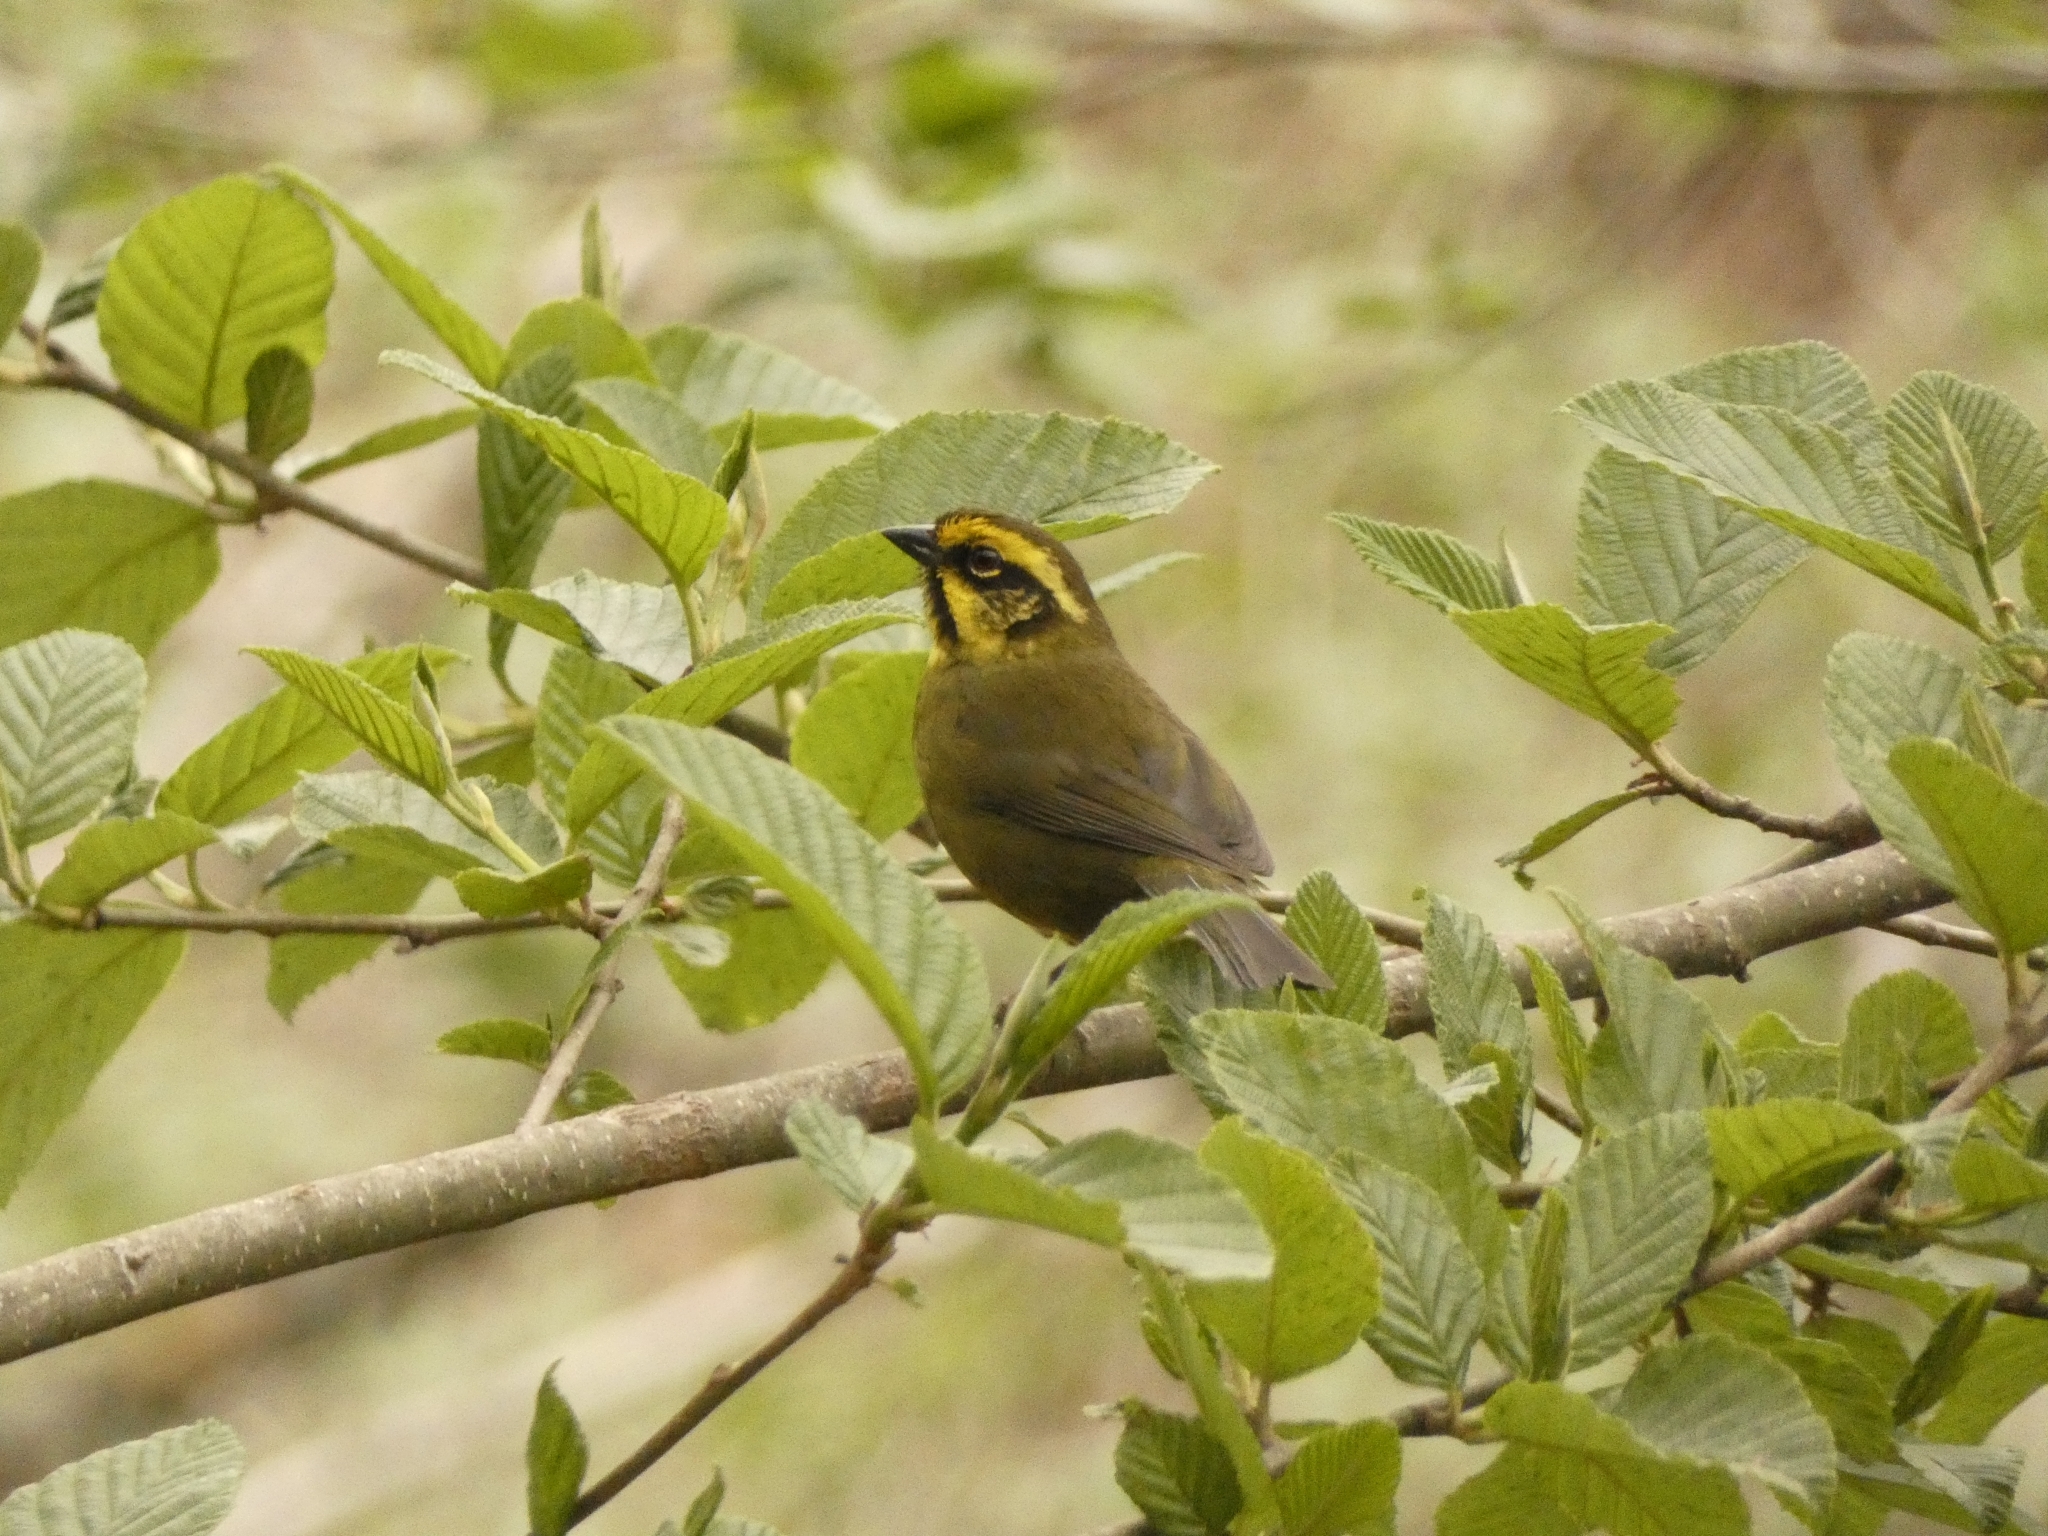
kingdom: Animalia
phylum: Chordata
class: Aves
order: Passeriformes
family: Passerellidae
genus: Atlapetes
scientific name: Atlapetes citrinellus
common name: Yellow-striped brushfinch
